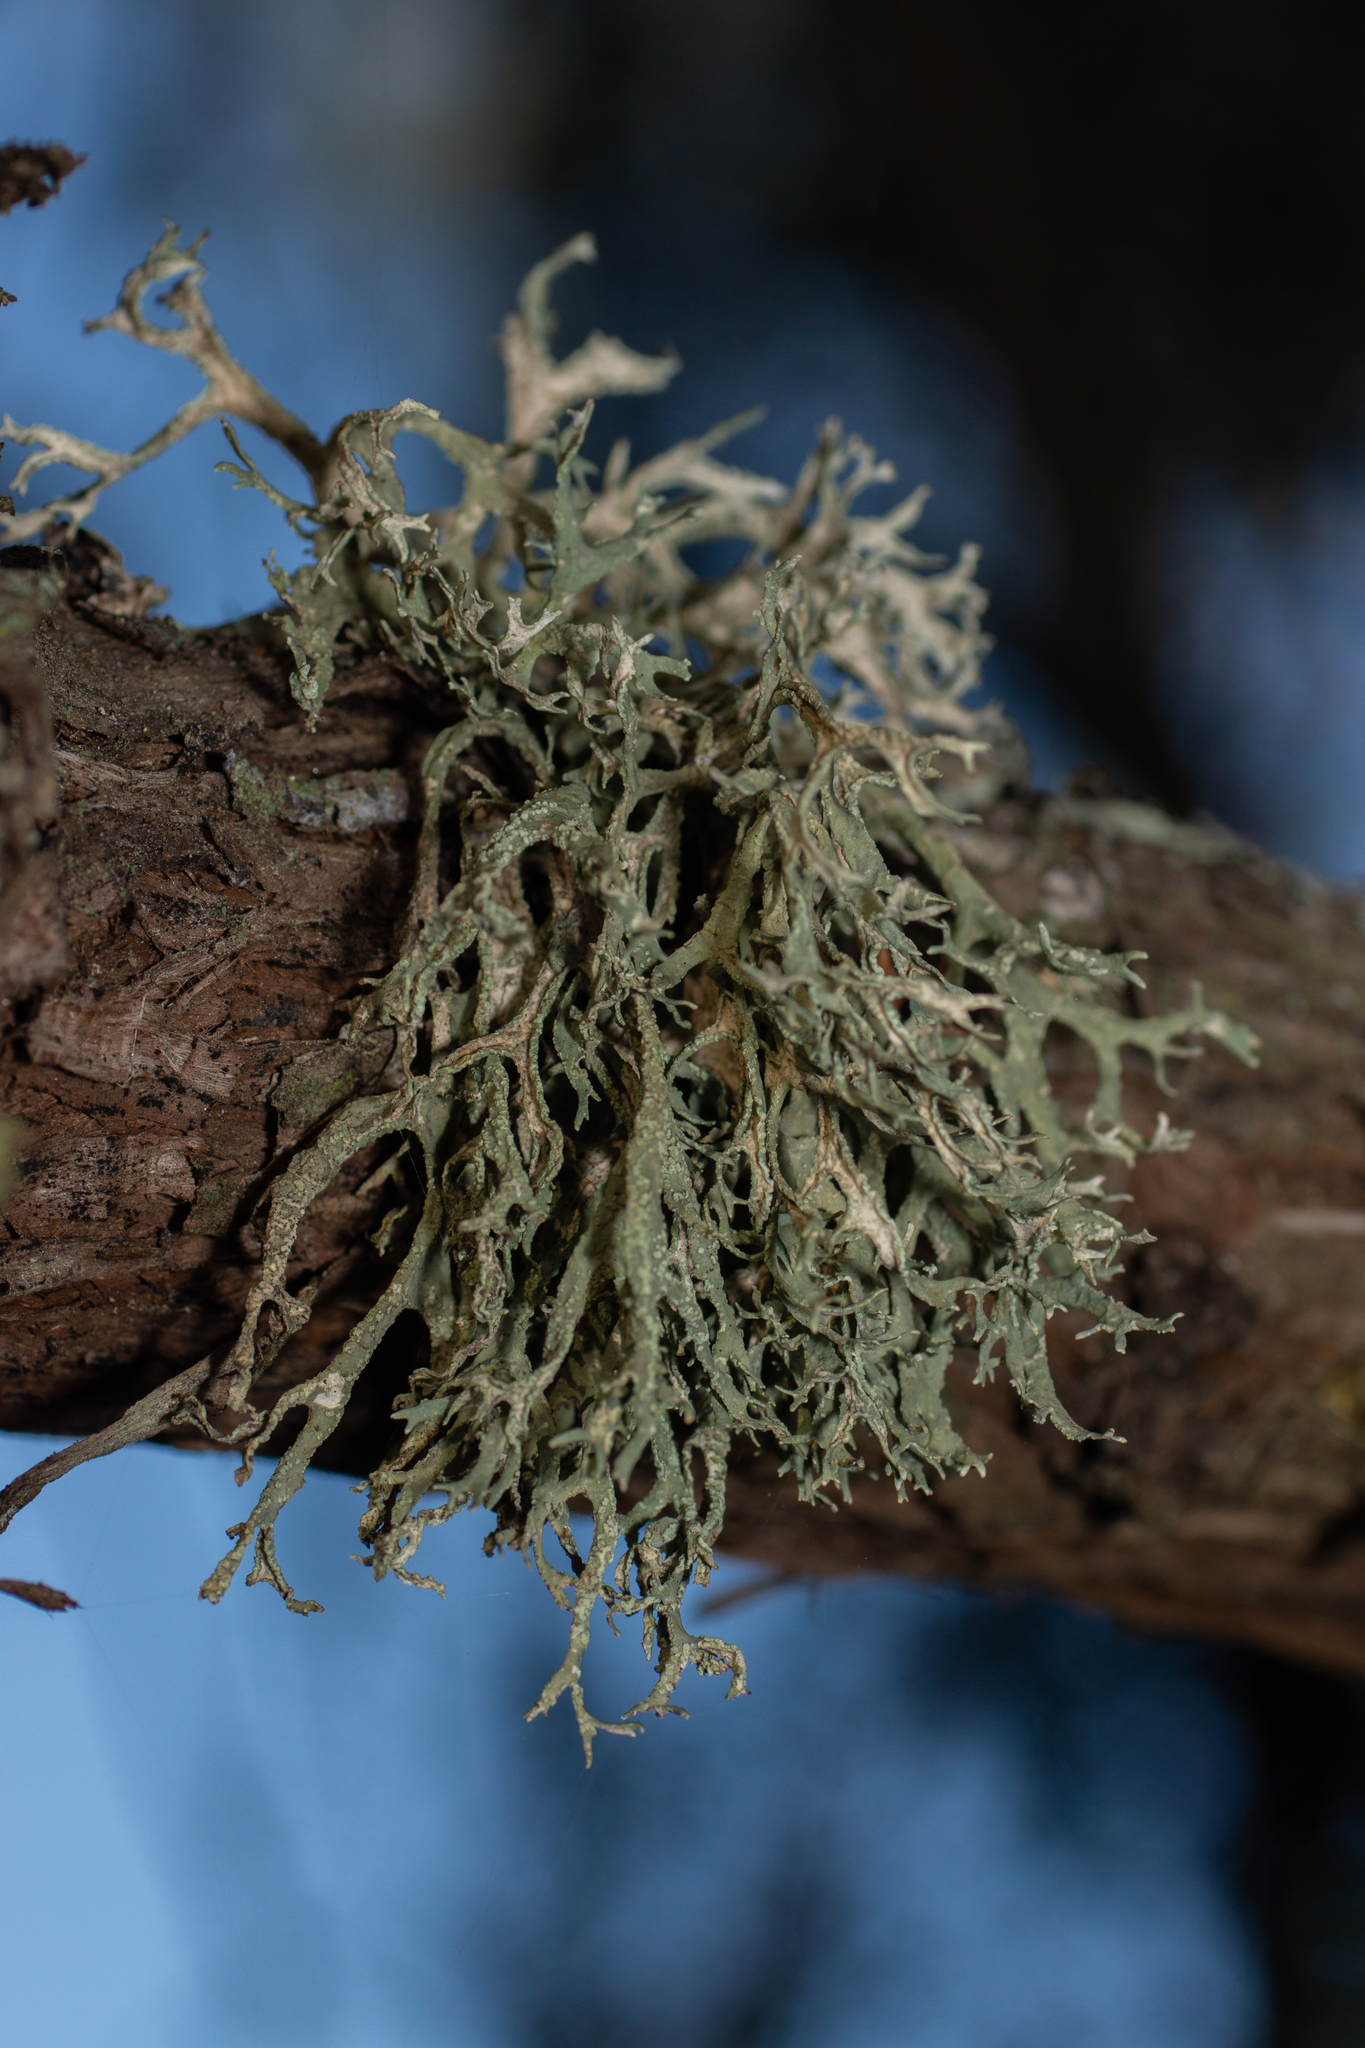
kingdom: Fungi
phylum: Ascomycota
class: Lecanoromycetes
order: Lecanorales
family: Parmeliaceae
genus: Evernia
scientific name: Evernia prunastri
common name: Oak moss
